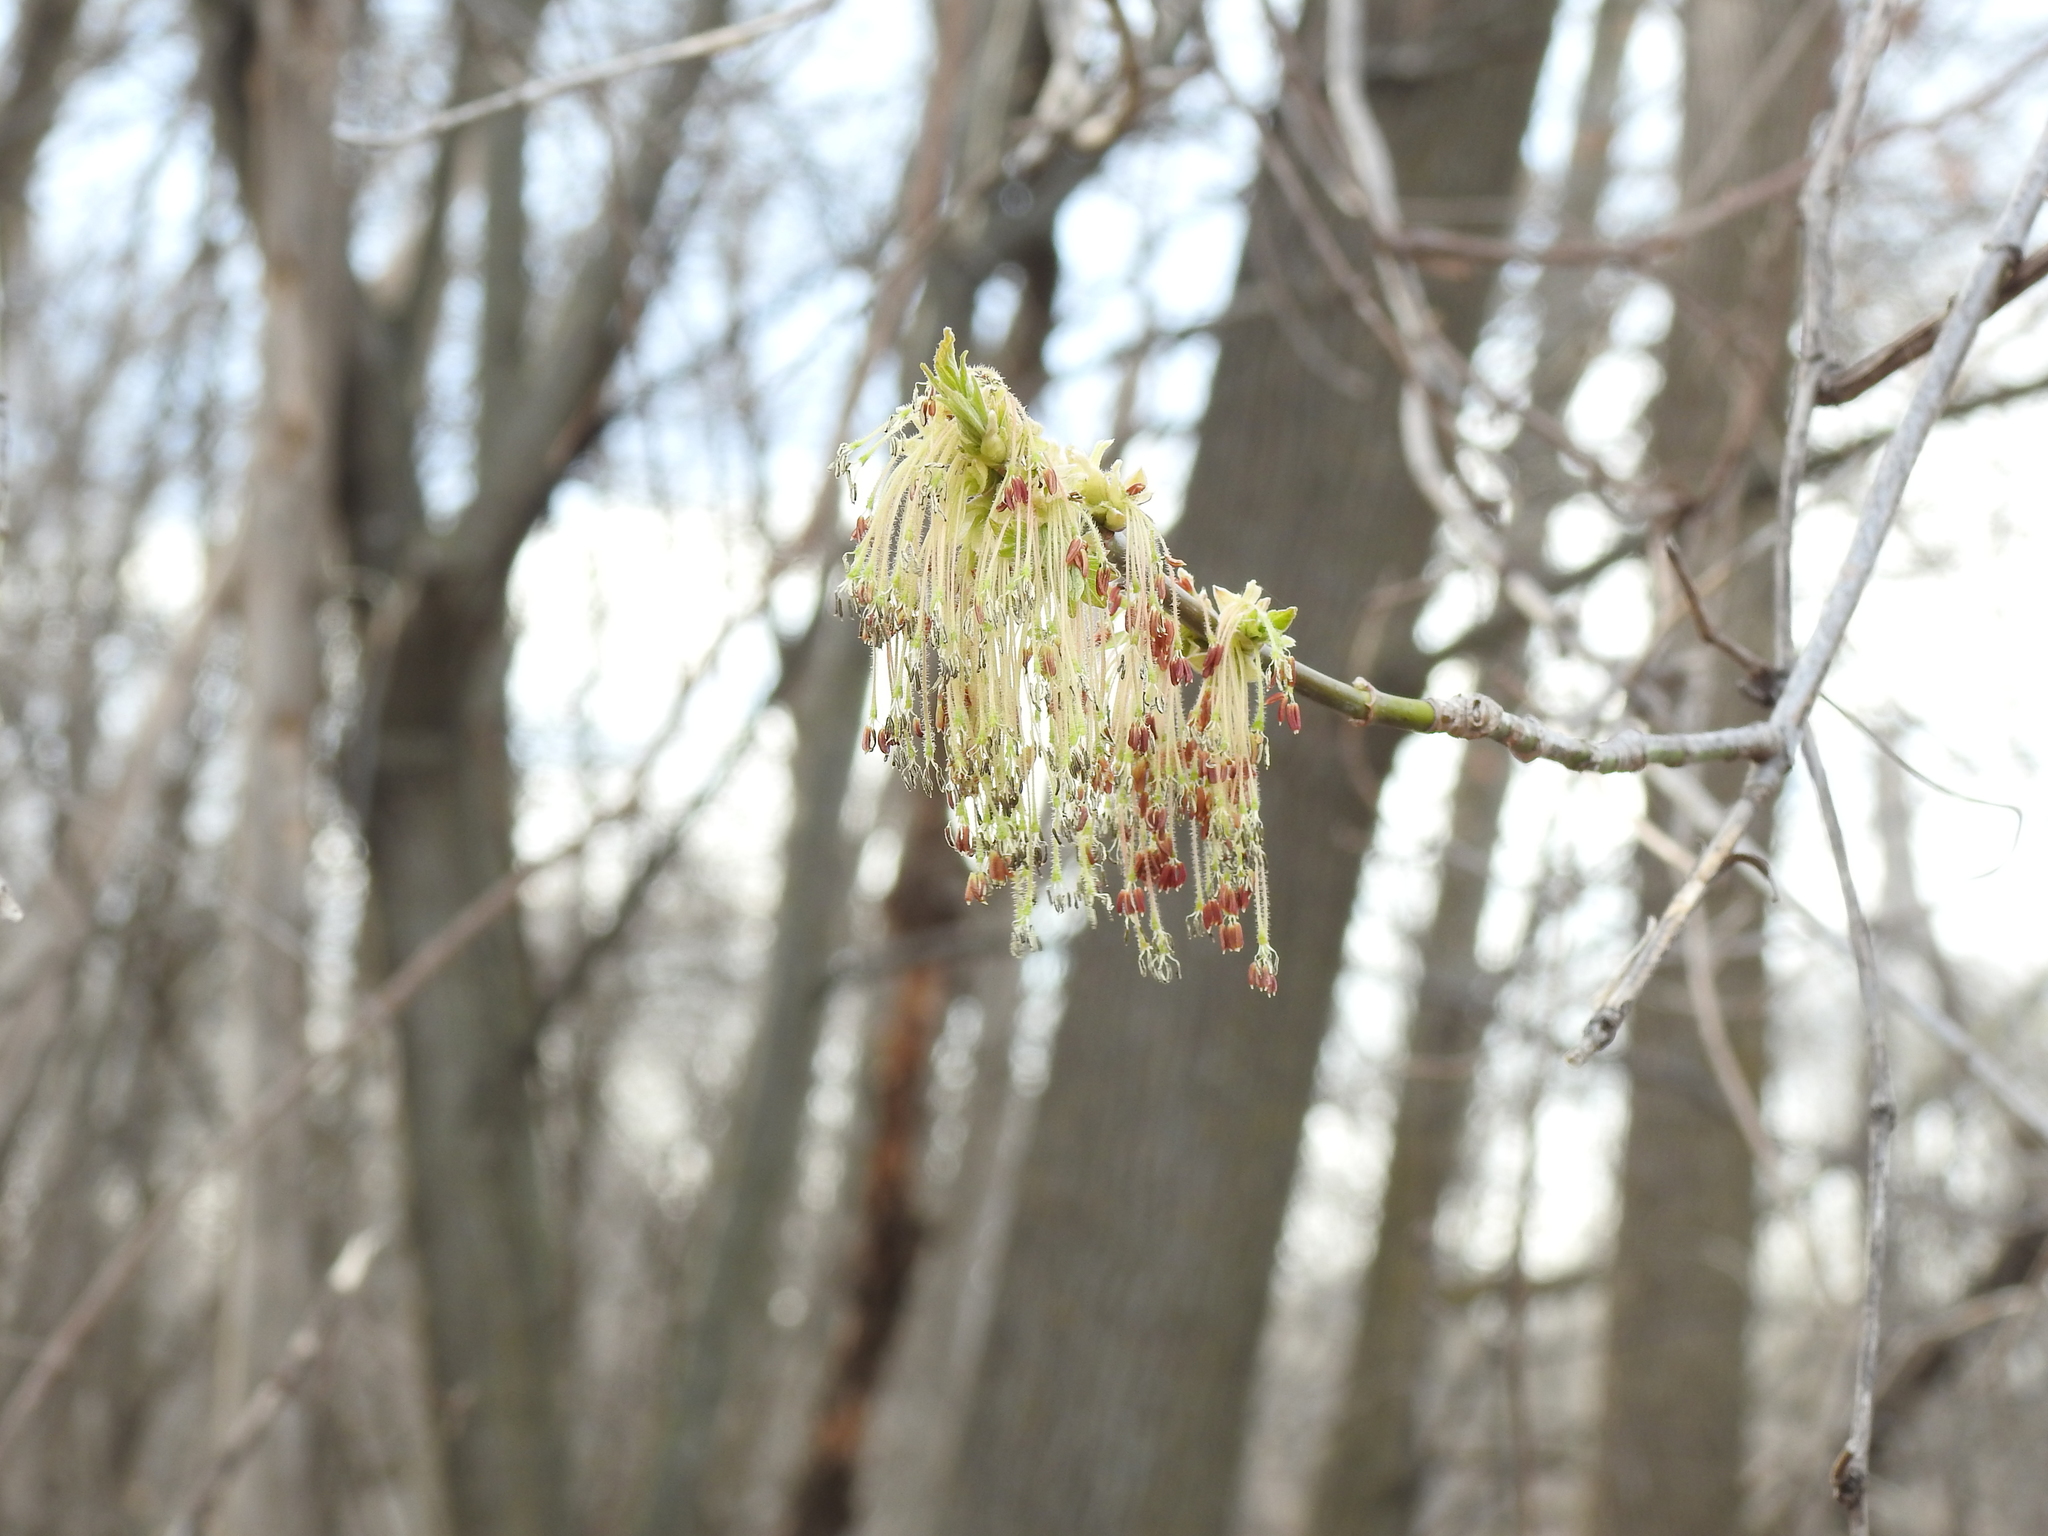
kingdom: Plantae
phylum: Tracheophyta
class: Magnoliopsida
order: Sapindales
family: Sapindaceae
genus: Acer
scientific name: Acer negundo
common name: Ashleaf maple
